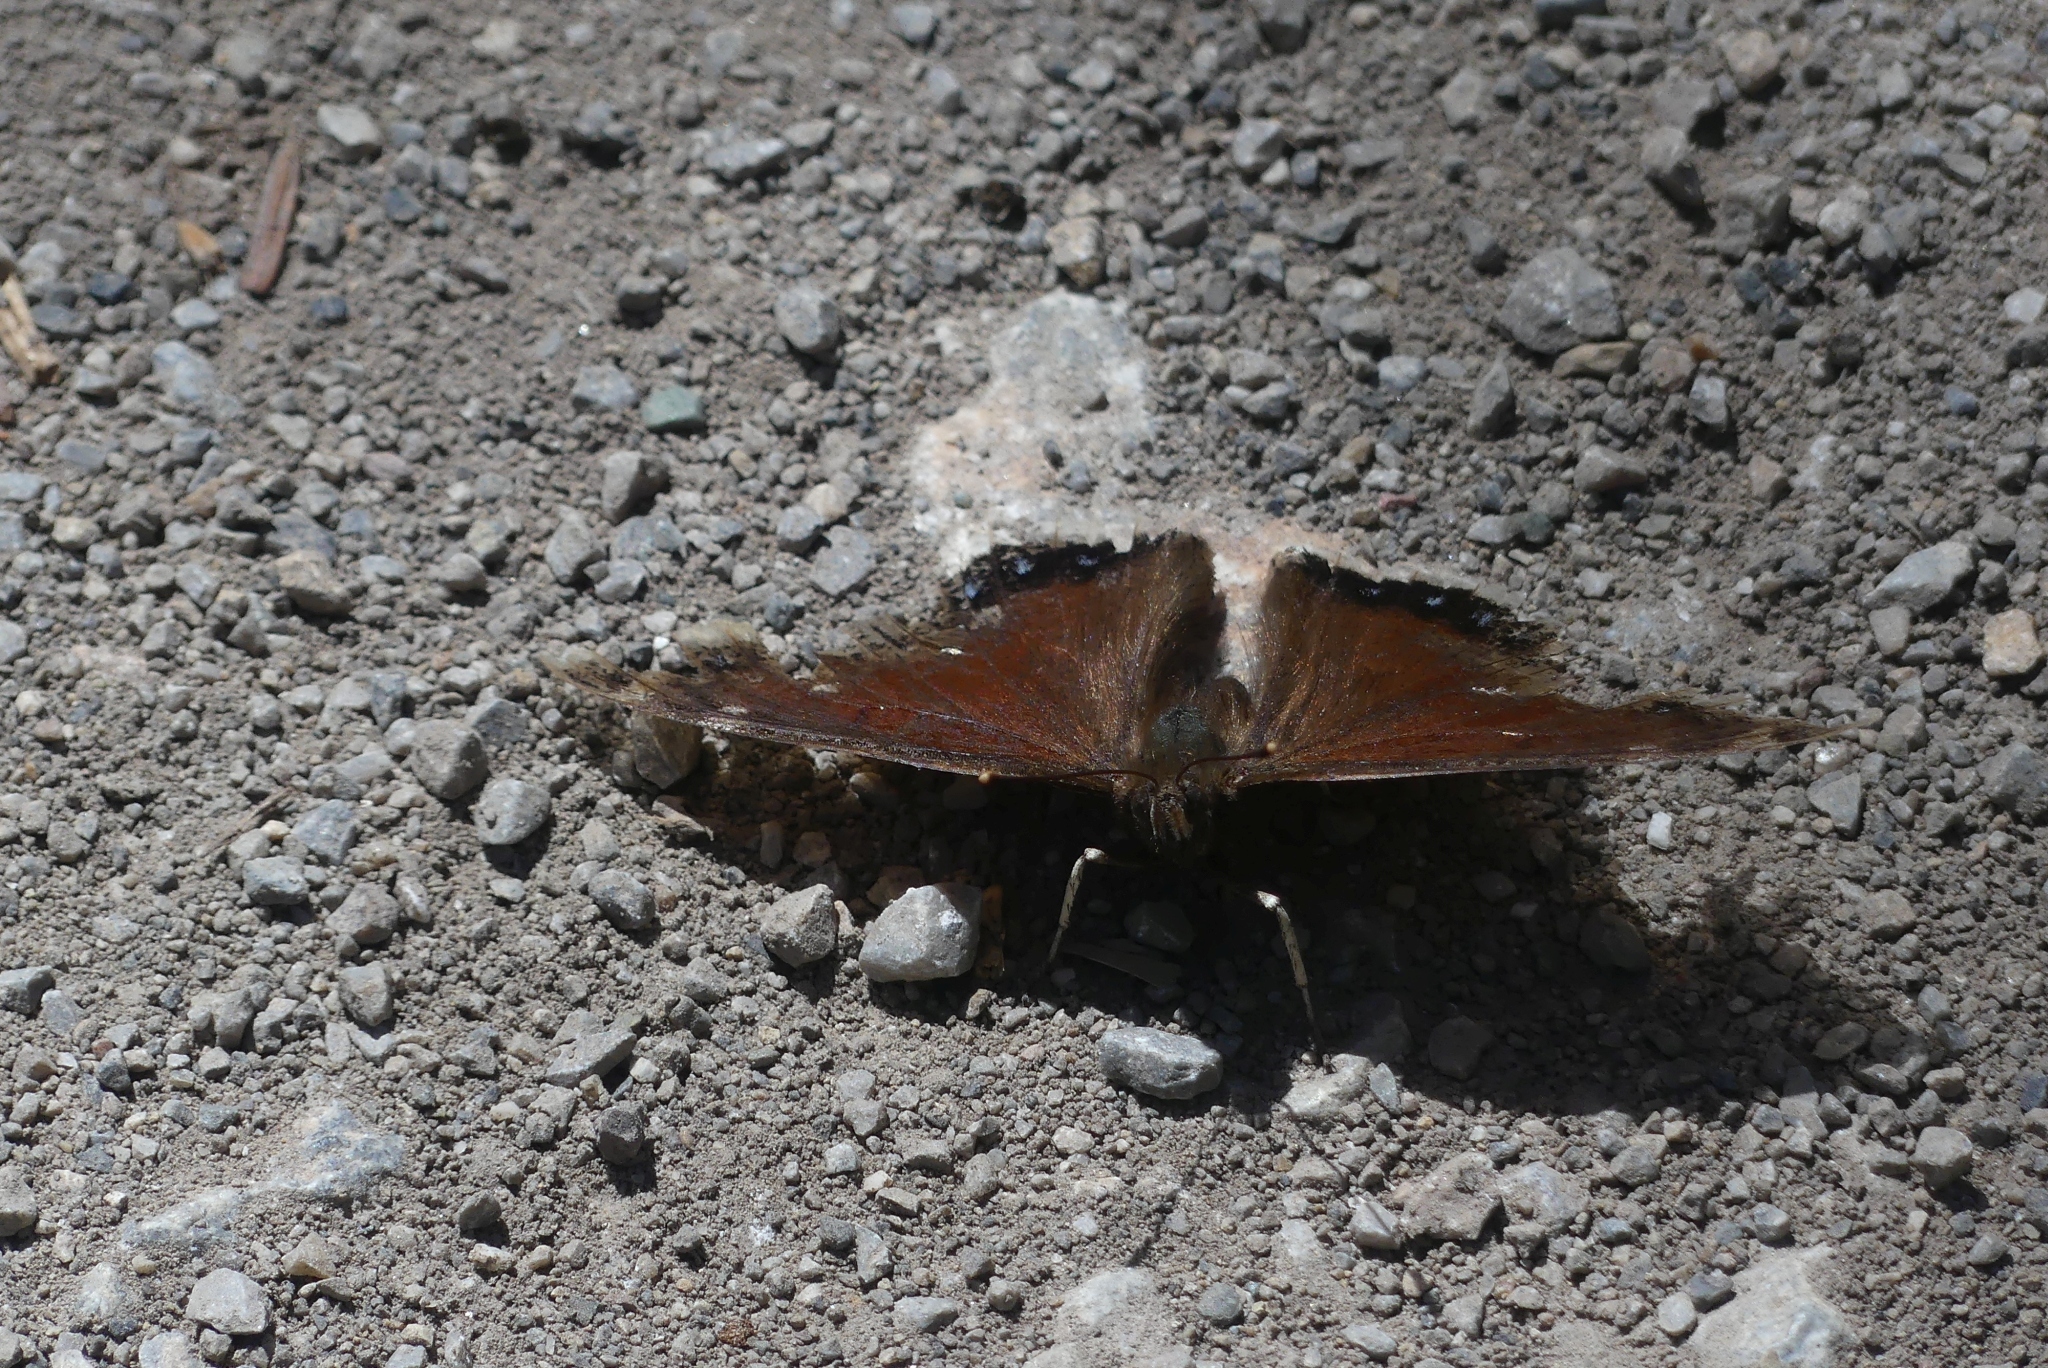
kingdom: Animalia
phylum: Arthropoda
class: Insecta
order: Lepidoptera
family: Nymphalidae
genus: Nymphalis
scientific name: Nymphalis antiopa
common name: Camberwell beauty
